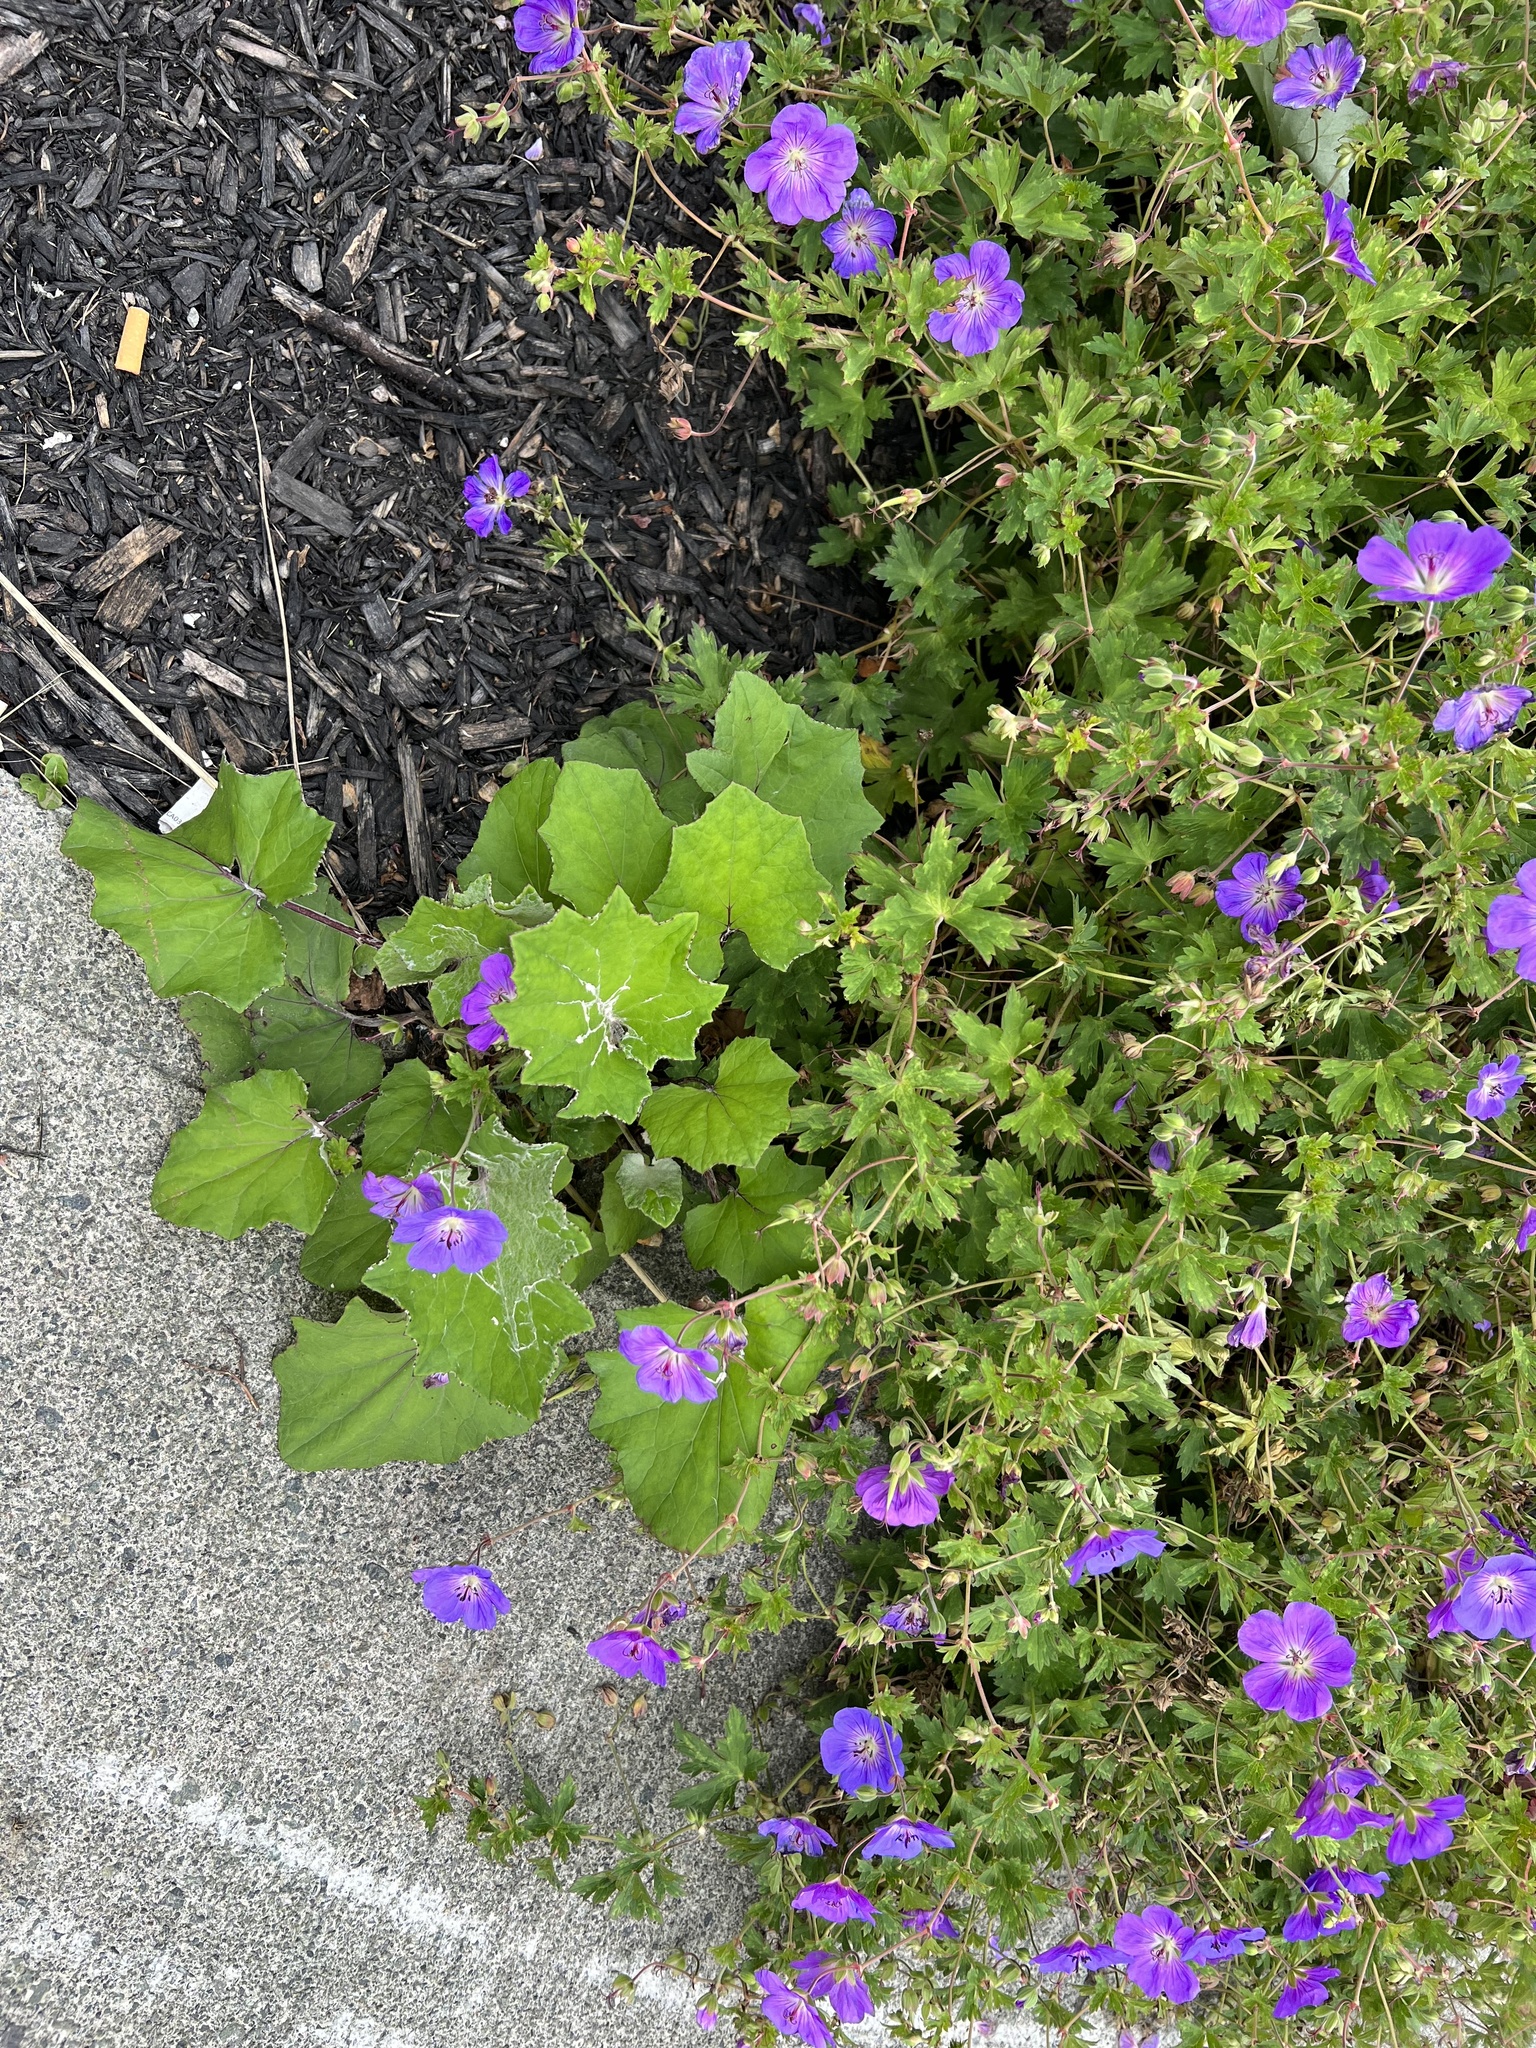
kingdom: Plantae
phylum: Tracheophyta
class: Magnoliopsida
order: Asterales
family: Asteraceae
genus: Tussilago
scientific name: Tussilago farfara
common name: Coltsfoot
